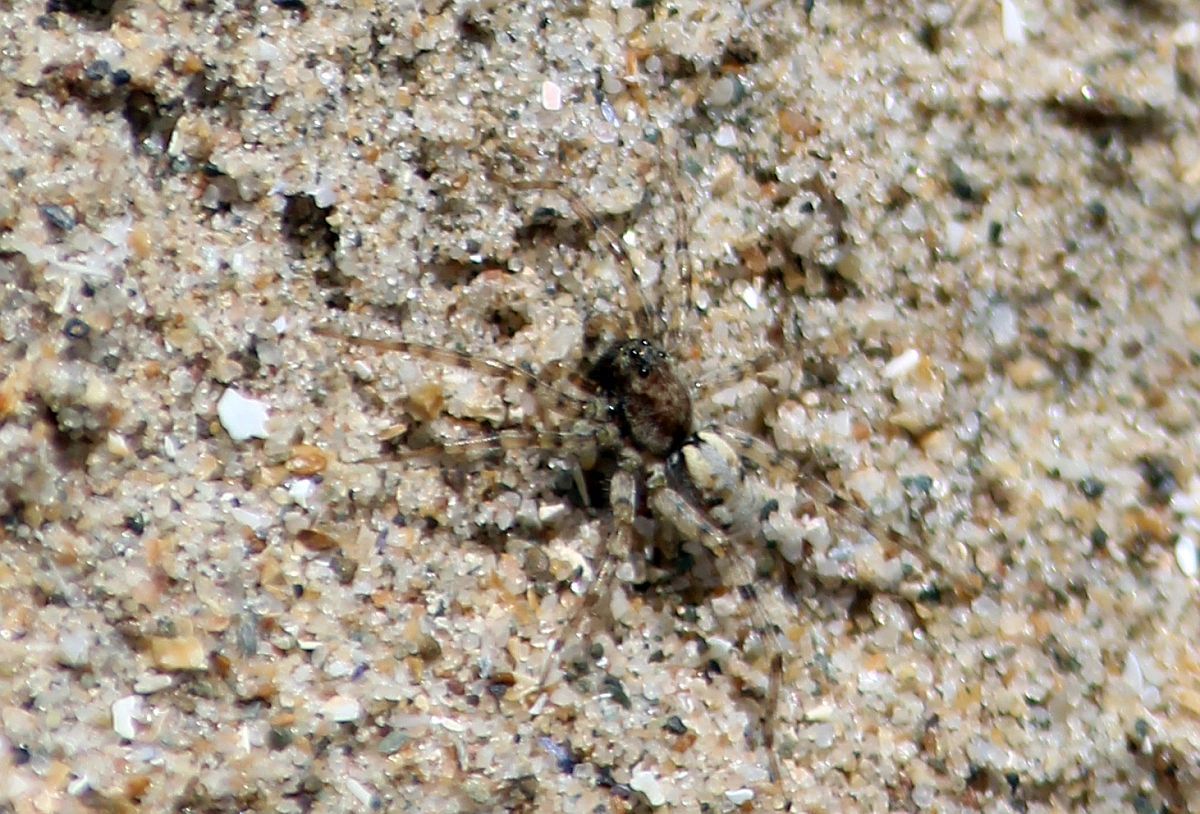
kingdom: Animalia
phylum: Arthropoda
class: Arachnida
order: Araneae
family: Lycosidae
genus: Arctosa
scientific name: Arctosa perita
